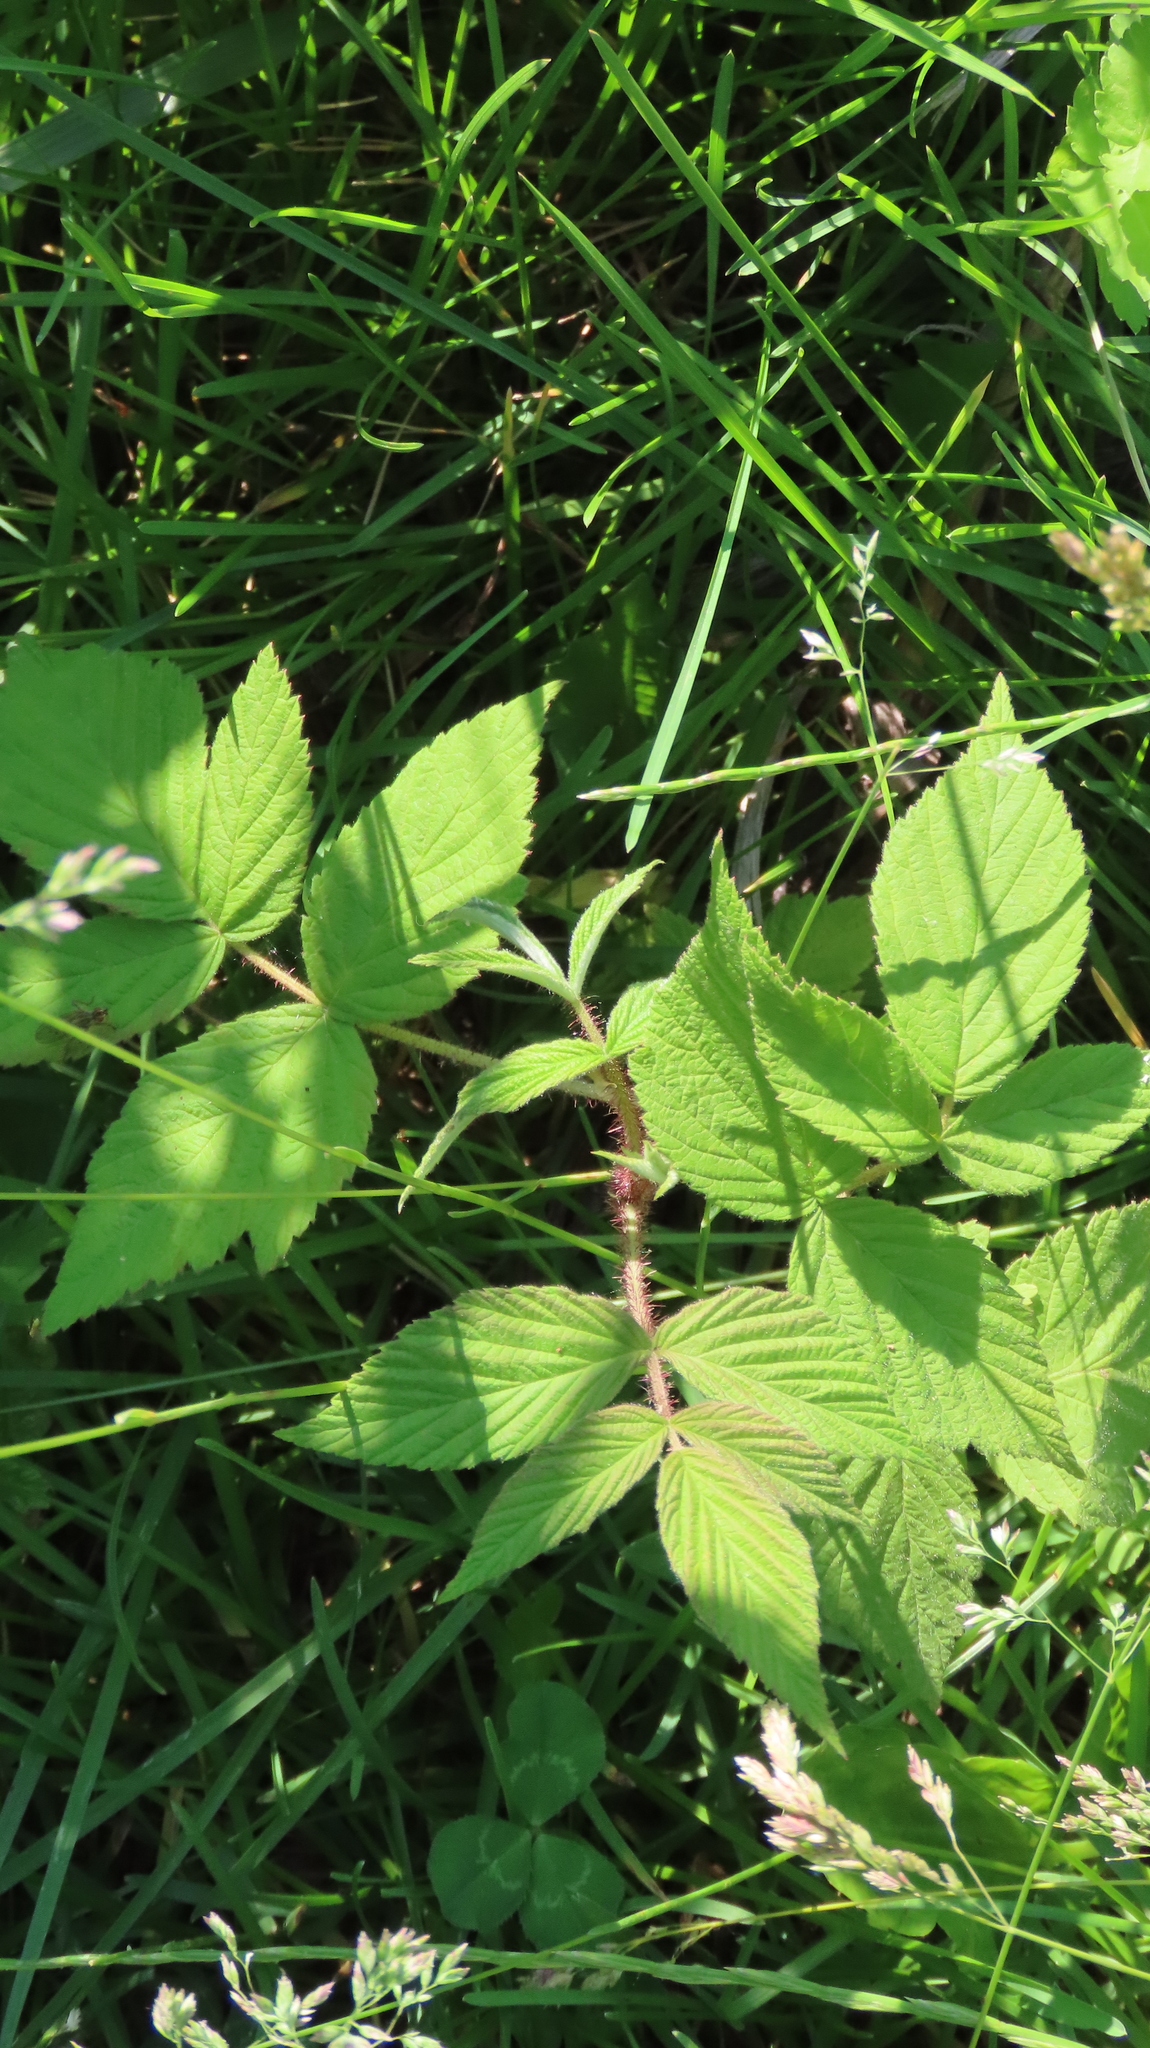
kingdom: Plantae
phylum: Tracheophyta
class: Magnoliopsida
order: Rosales
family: Rosaceae
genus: Rubus
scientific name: Rubus idaeus
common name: Raspberry
